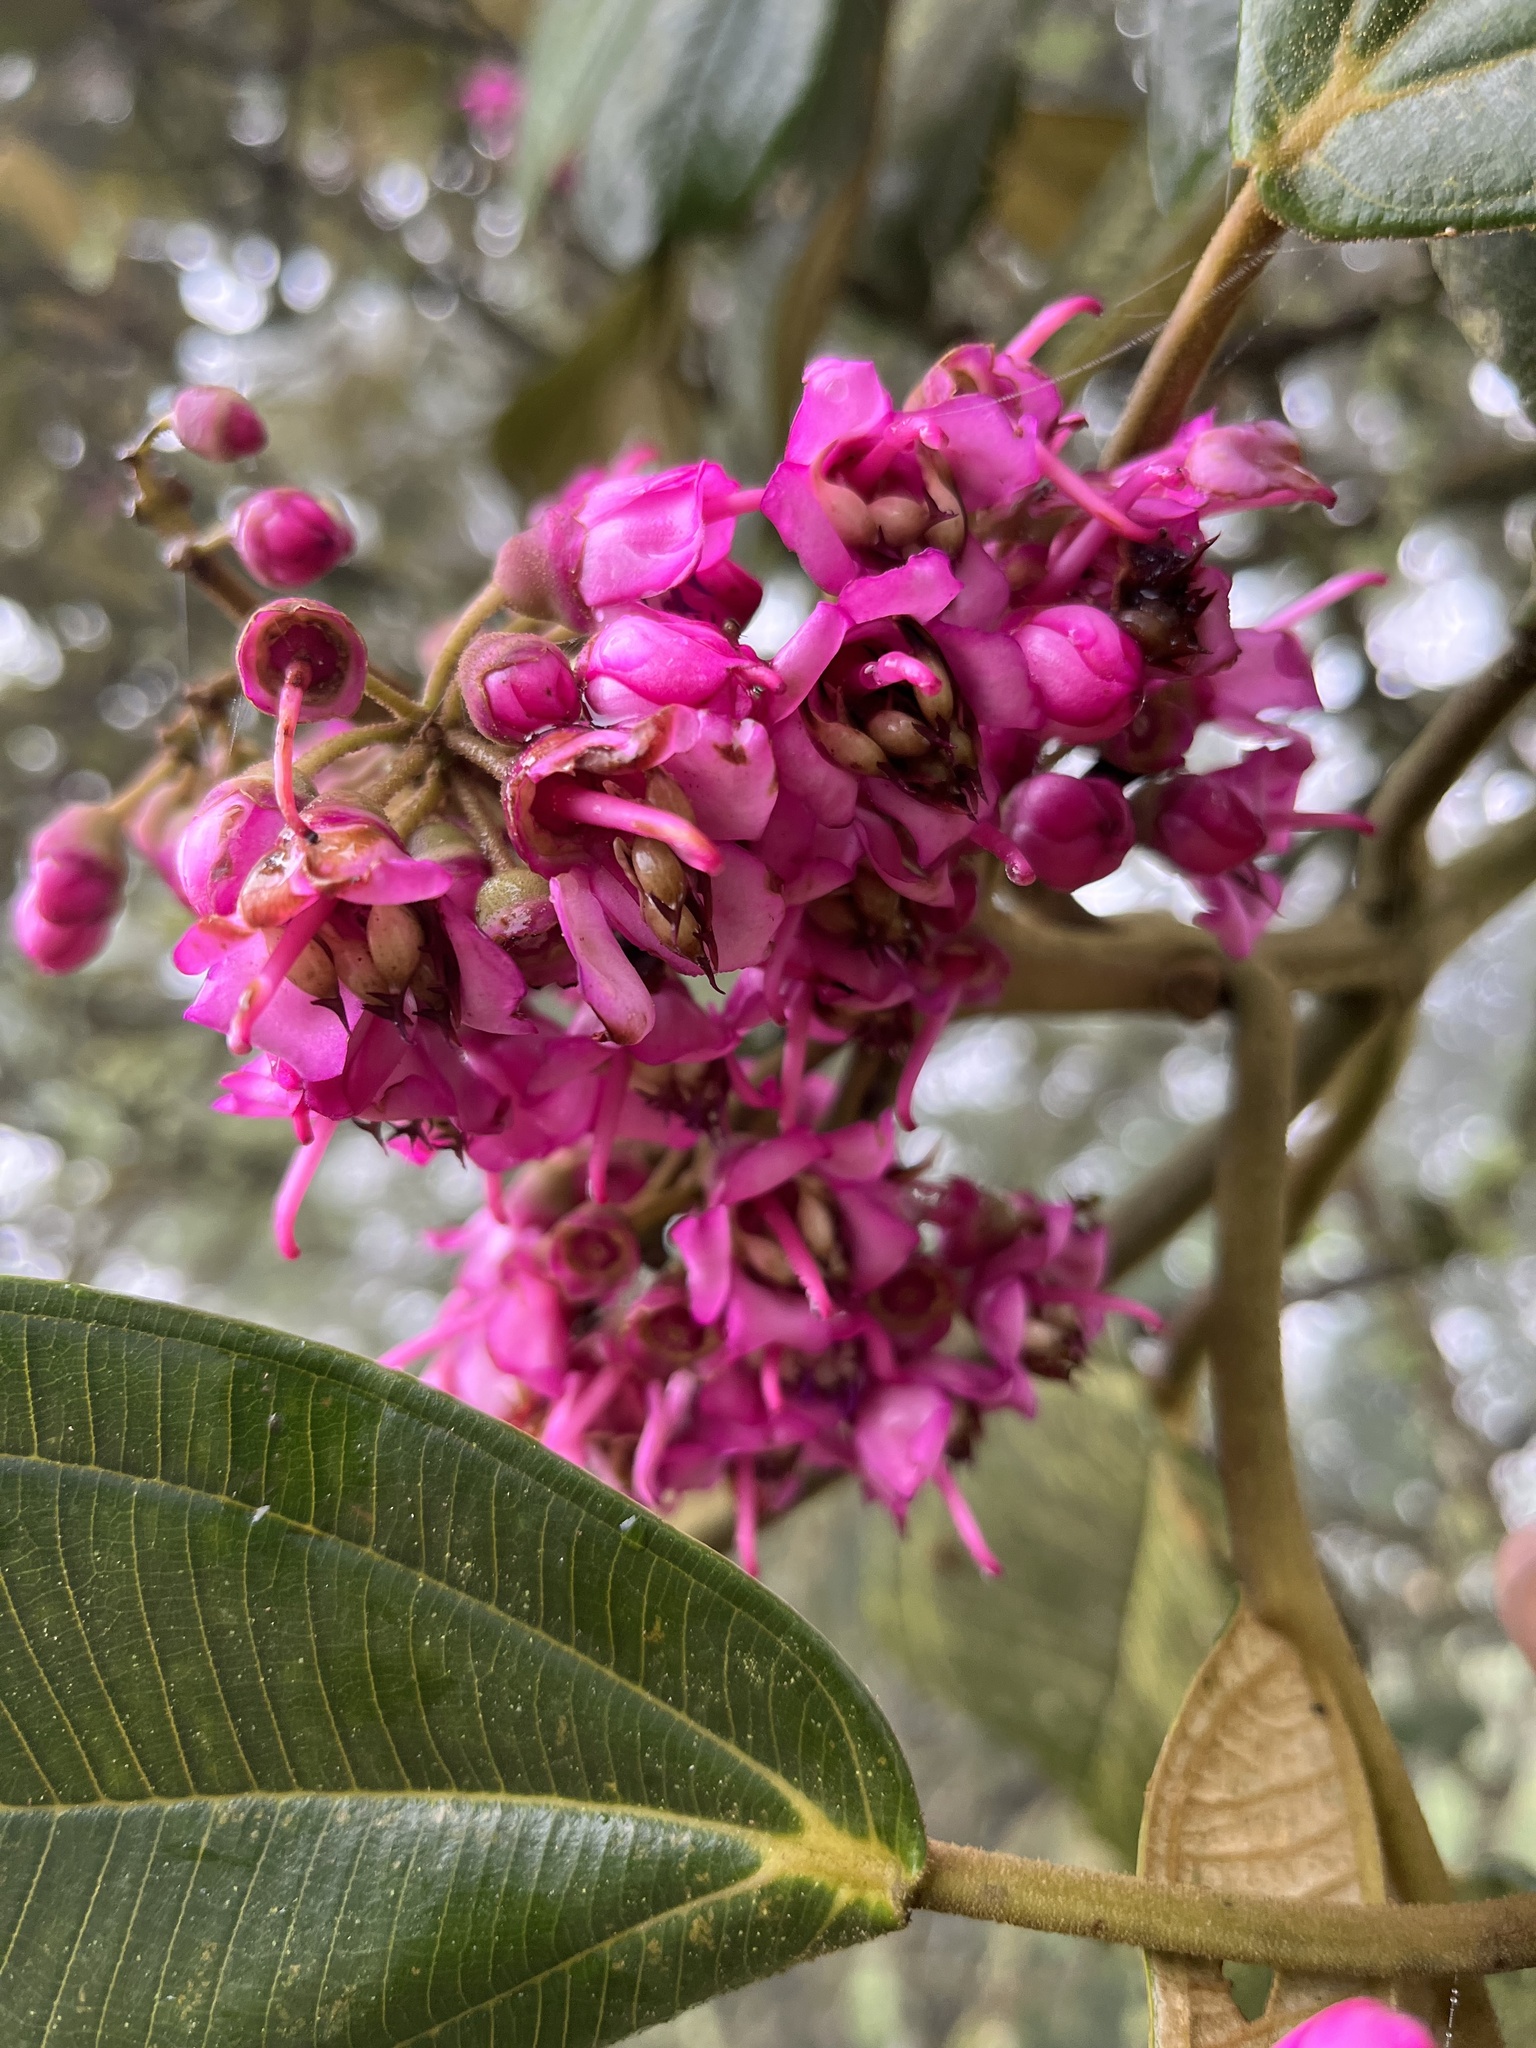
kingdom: Plantae
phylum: Tracheophyta
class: Magnoliopsida
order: Myrtales
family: Melastomataceae
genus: Meriania
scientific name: Meriania macrophylla
